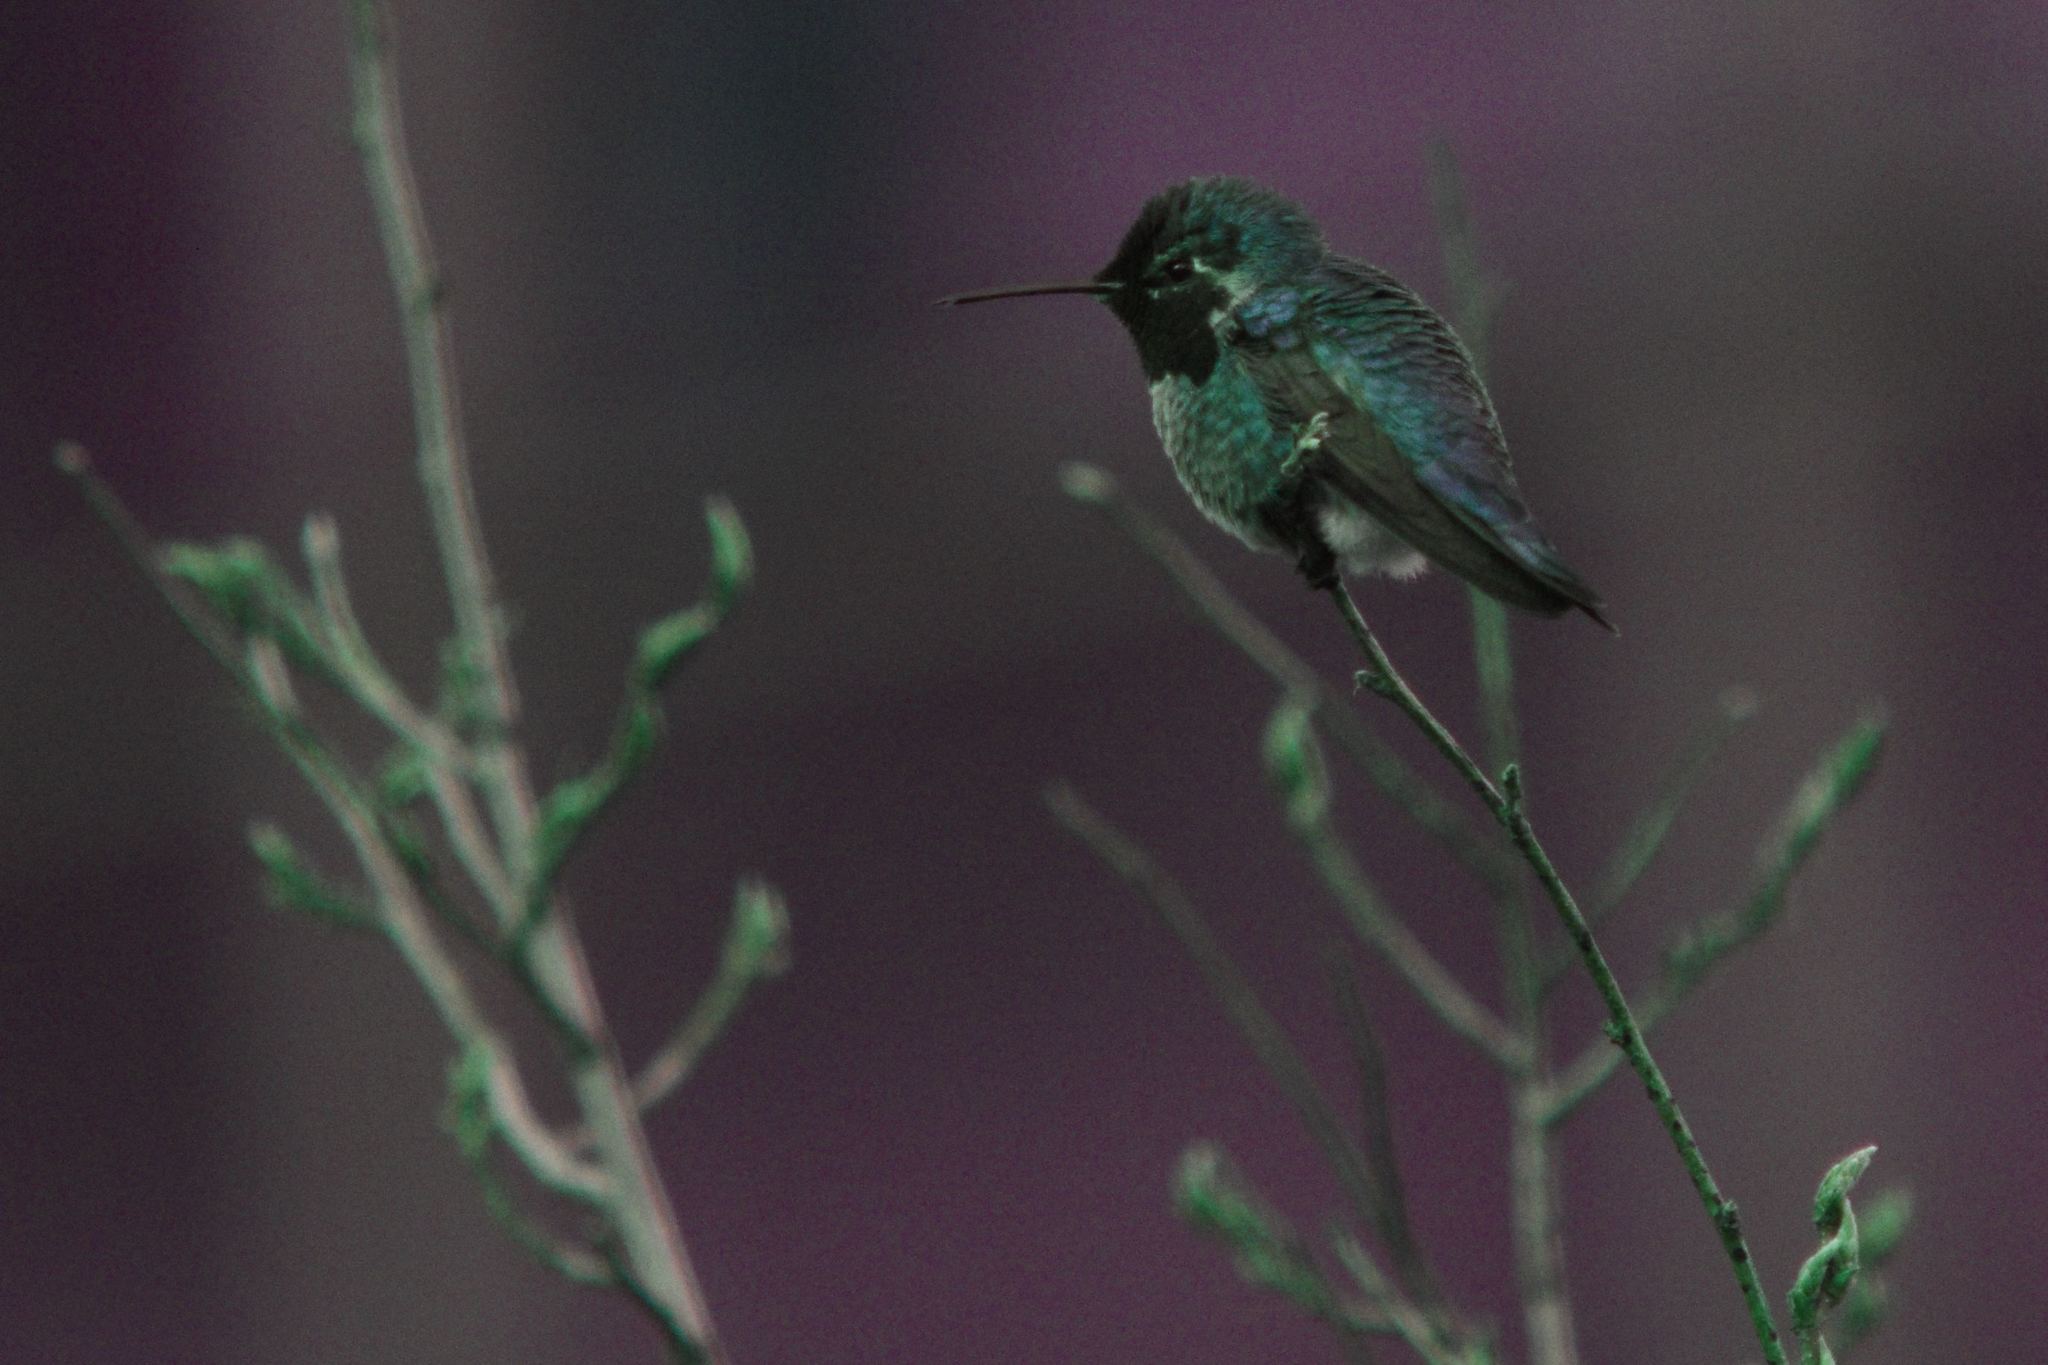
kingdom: Animalia
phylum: Chordata
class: Aves
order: Apodiformes
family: Trochilidae
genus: Calypte
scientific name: Calypte anna
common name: Anna's hummingbird
